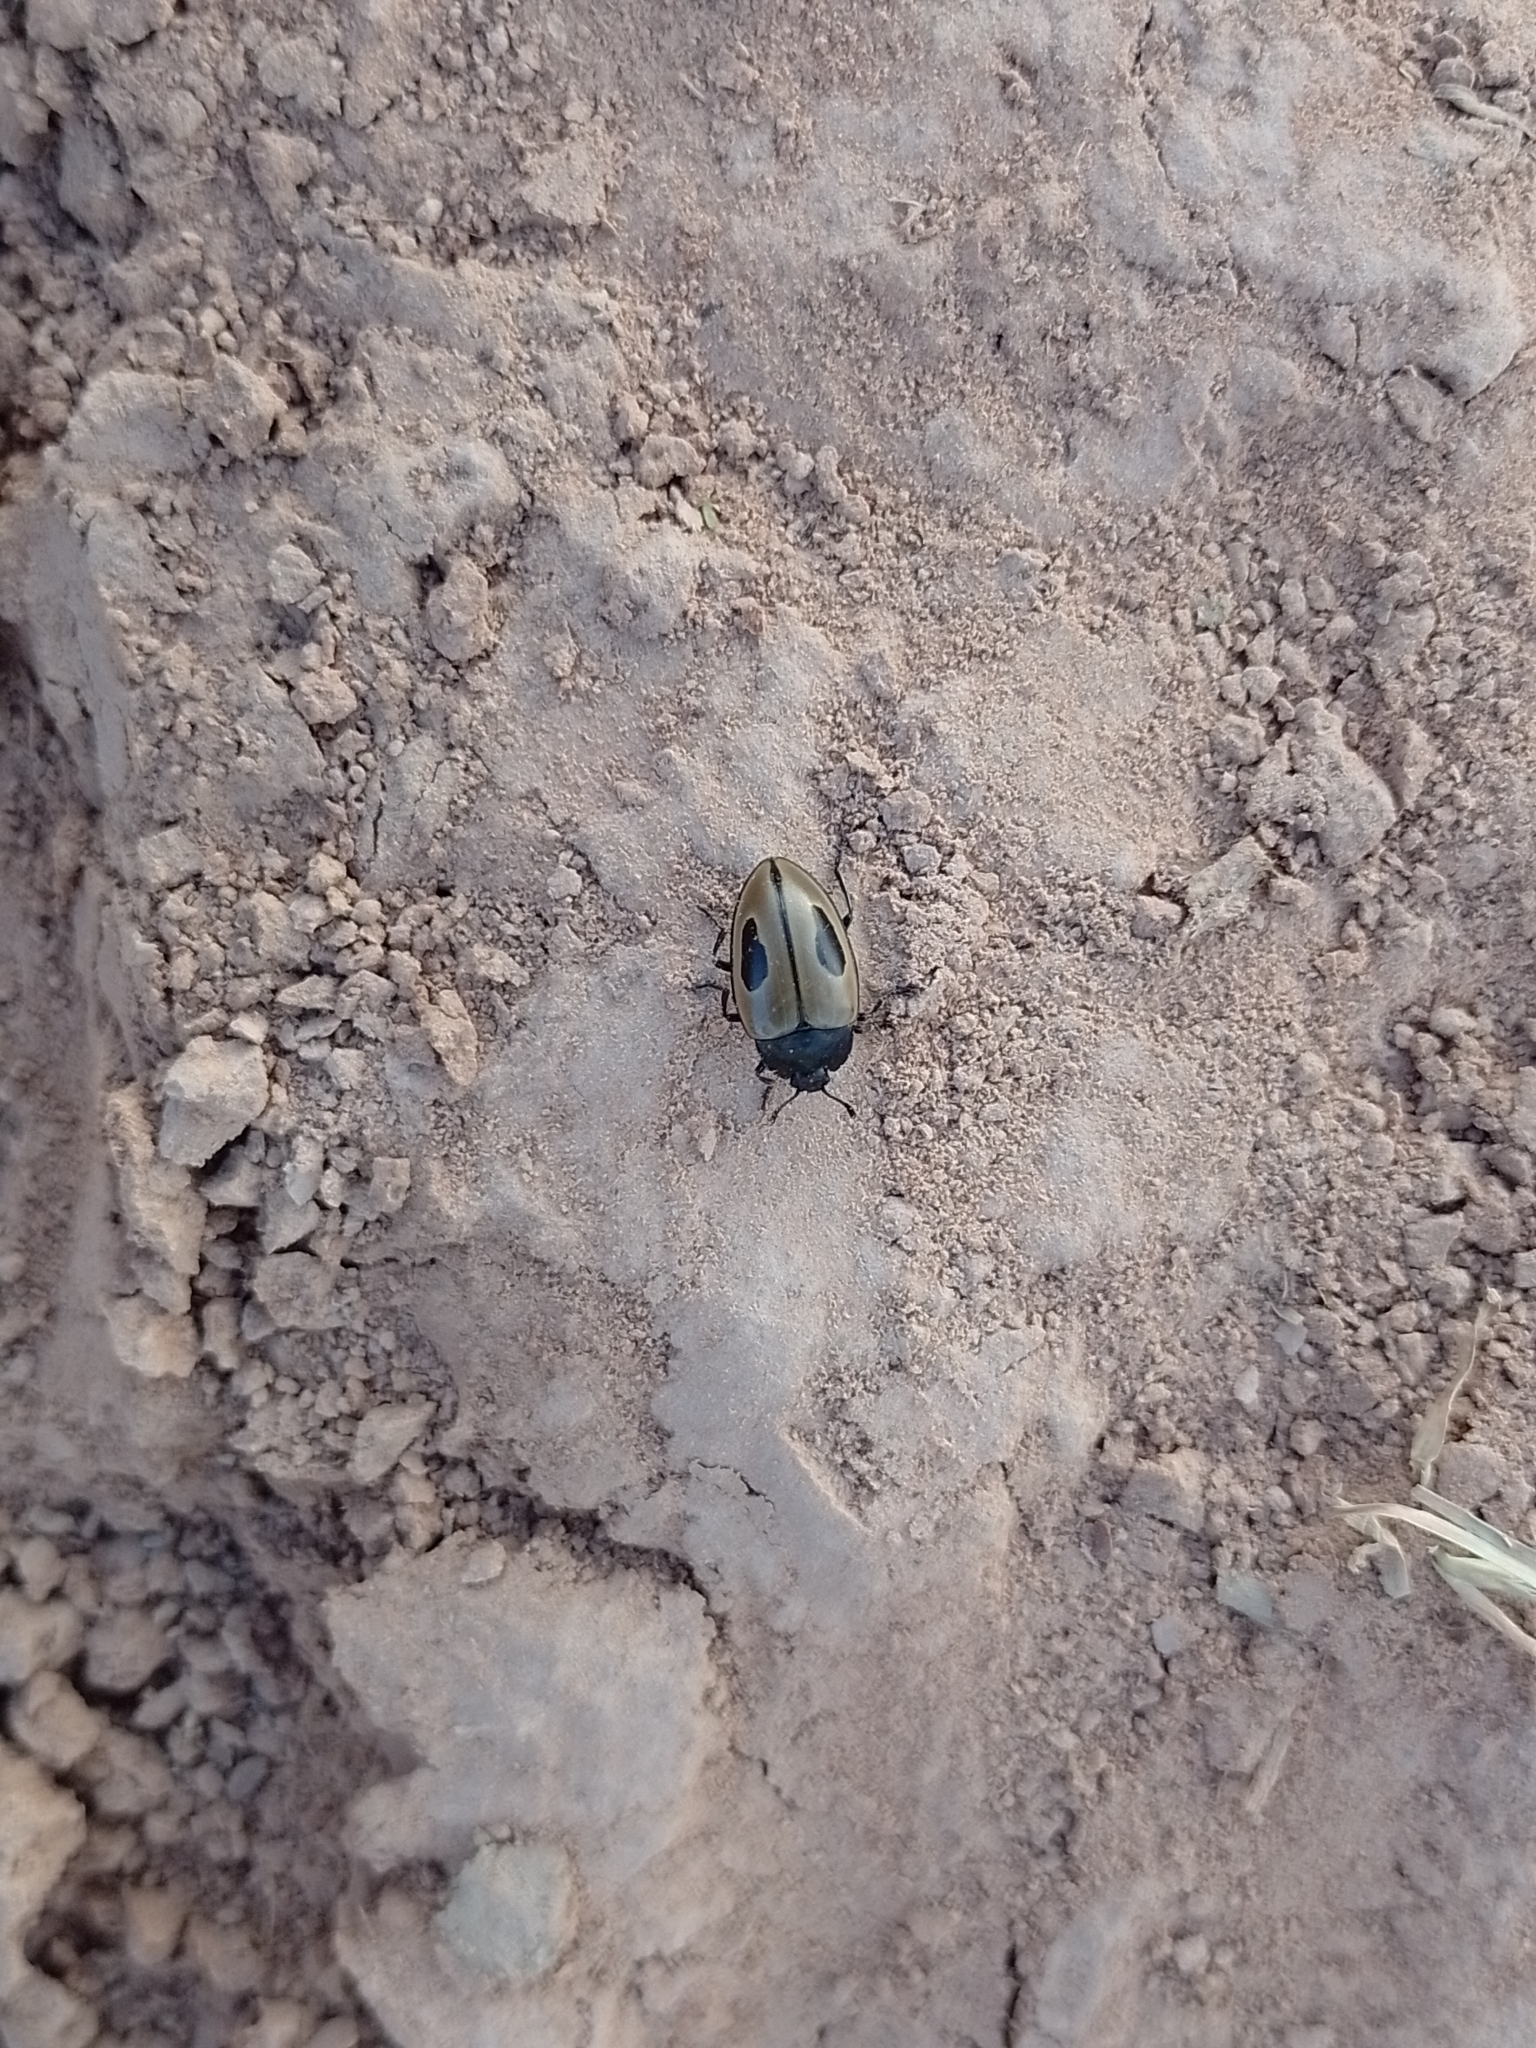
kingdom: Animalia
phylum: Arthropoda
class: Insecta
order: Coleoptera
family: Erotylidae
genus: Iphiclus
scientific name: Iphiclus
